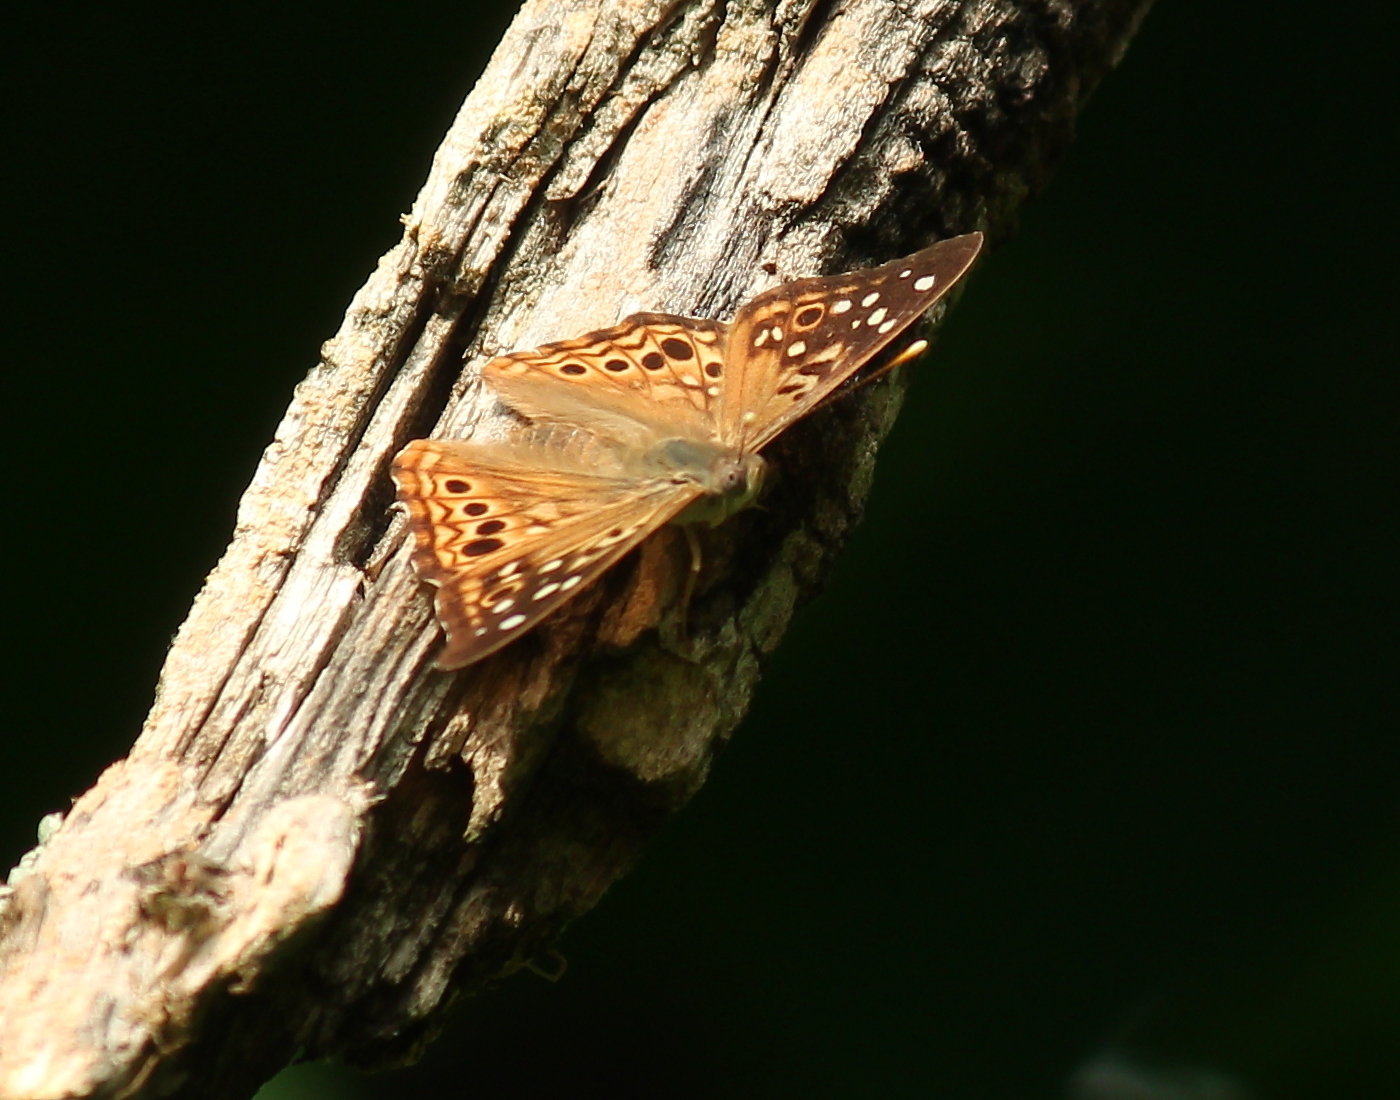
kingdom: Animalia
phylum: Arthropoda
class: Insecta
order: Lepidoptera
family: Nymphalidae
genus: Asterocampa
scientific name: Asterocampa celtis
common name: Hackberry emperor
